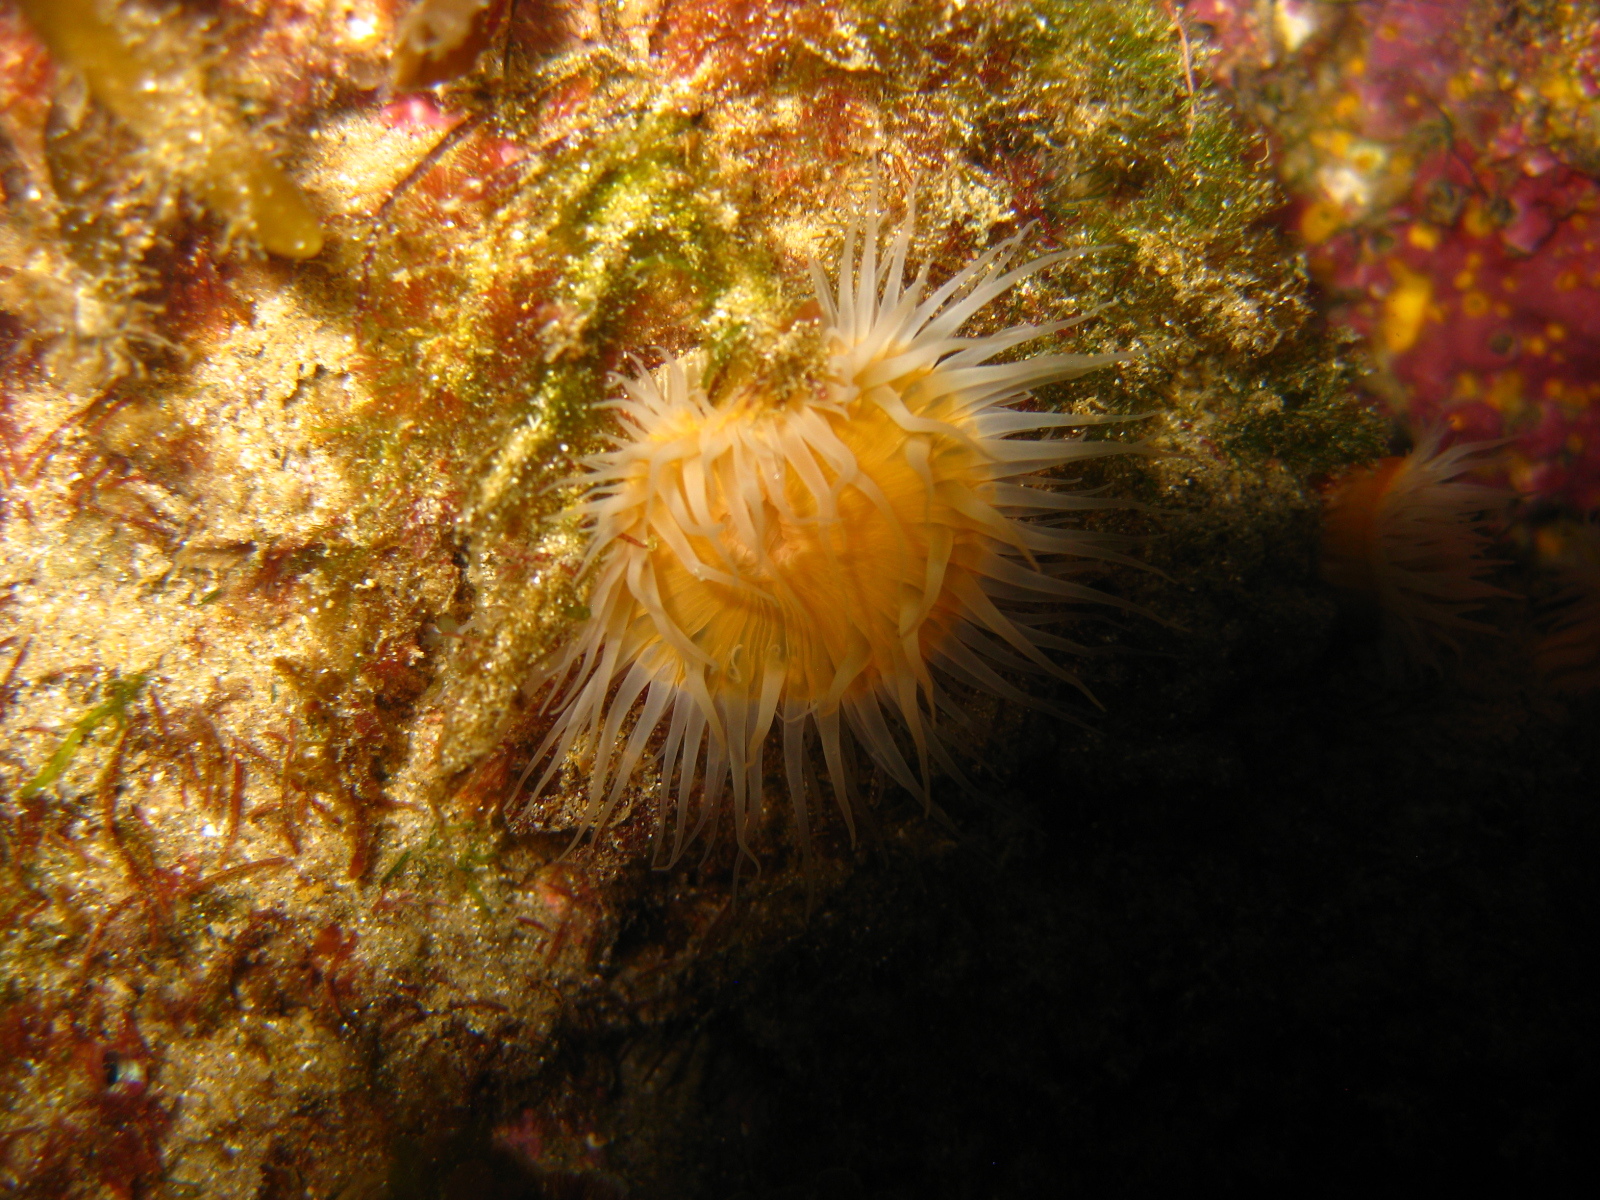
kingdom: Animalia
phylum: Cnidaria
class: Anthozoa
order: Actiniaria
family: Sagartiidae
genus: Anthothoe
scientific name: Anthothoe albocincta
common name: Orange striped anemone
